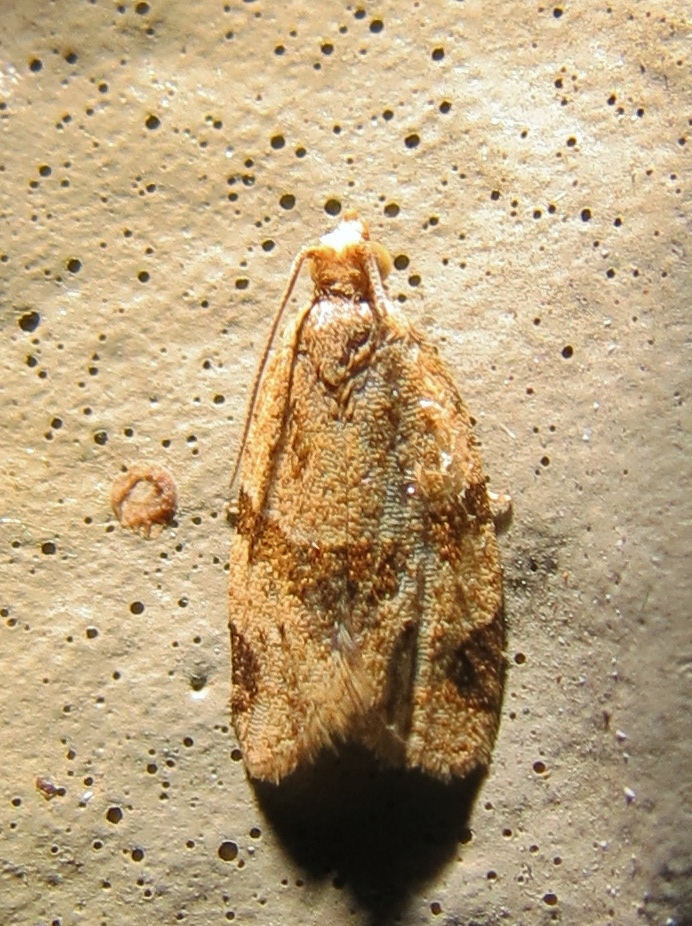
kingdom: Animalia
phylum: Arthropoda
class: Insecta
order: Lepidoptera
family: Tortricidae
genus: Clepsis
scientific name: Clepsis peritana
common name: Garden tortrix
